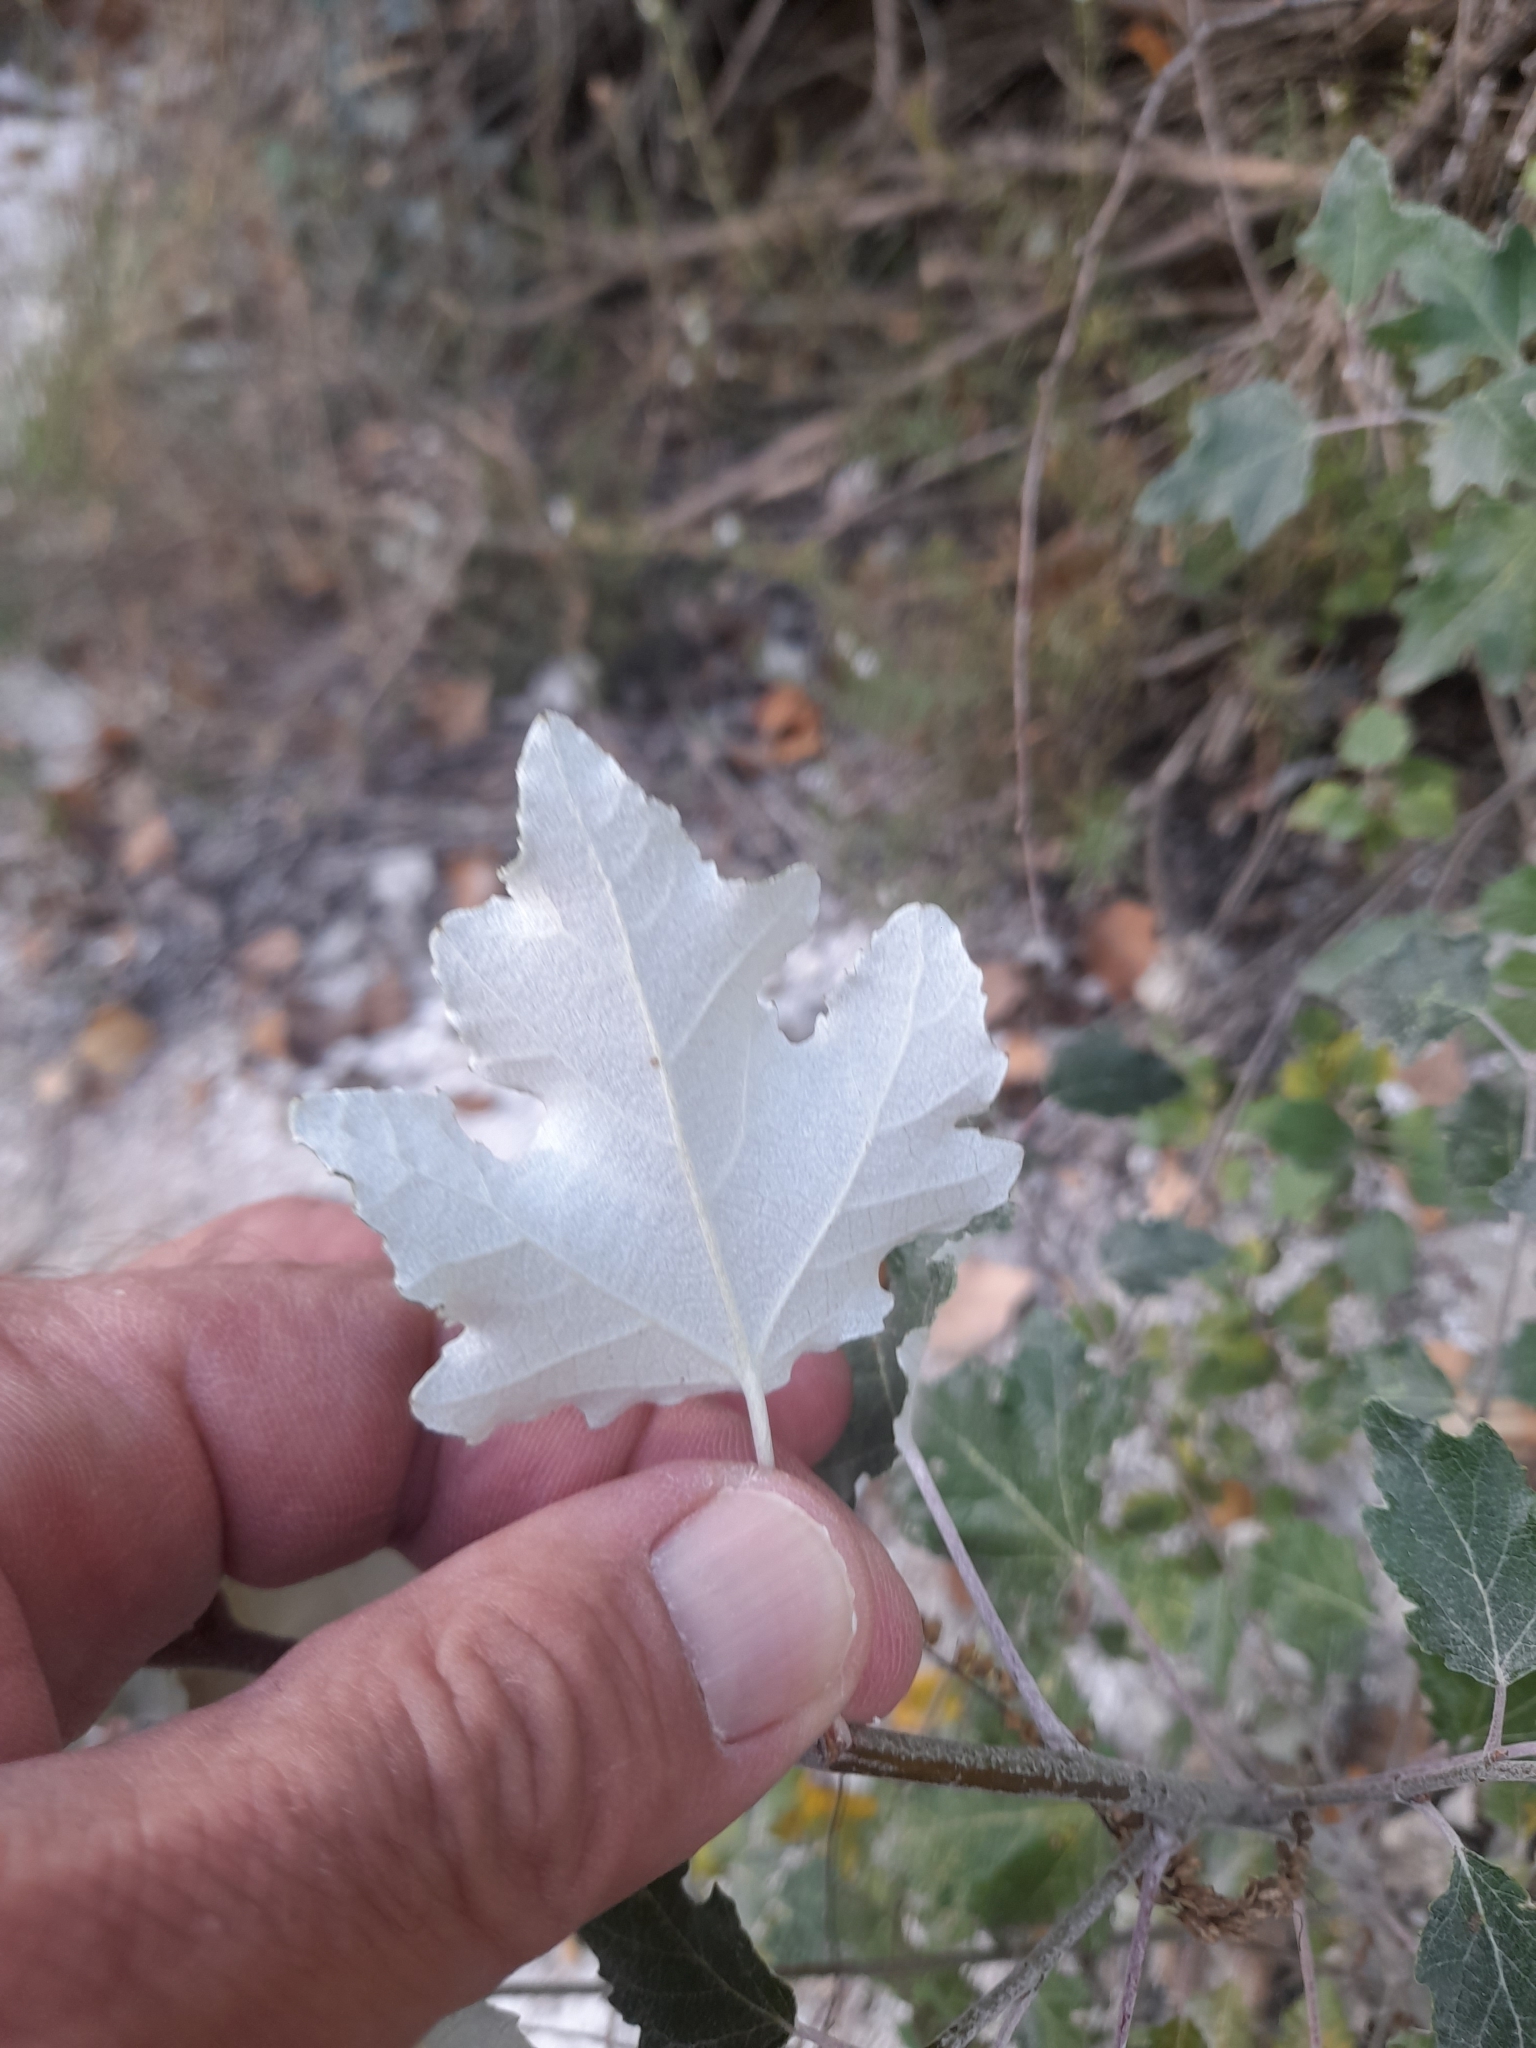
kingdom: Plantae
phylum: Tracheophyta
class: Magnoliopsida
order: Malpighiales
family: Salicaceae
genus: Populus
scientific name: Populus alba
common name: White poplar
